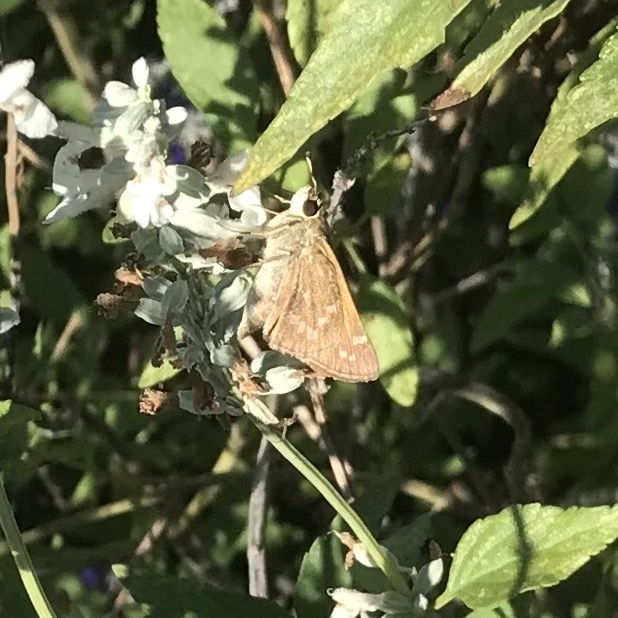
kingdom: Animalia
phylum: Arthropoda
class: Insecta
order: Lepidoptera
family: Hesperiidae
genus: Atalopedes
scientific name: Atalopedes
